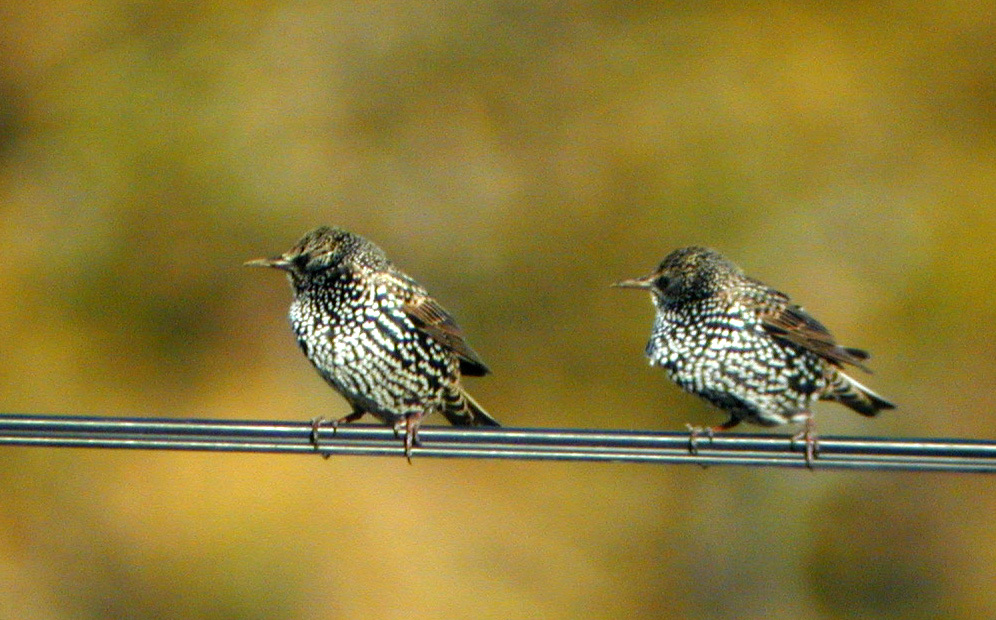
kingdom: Animalia
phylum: Chordata
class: Aves
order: Passeriformes
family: Sturnidae
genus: Sturnus
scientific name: Sturnus vulgaris
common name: Common starling
